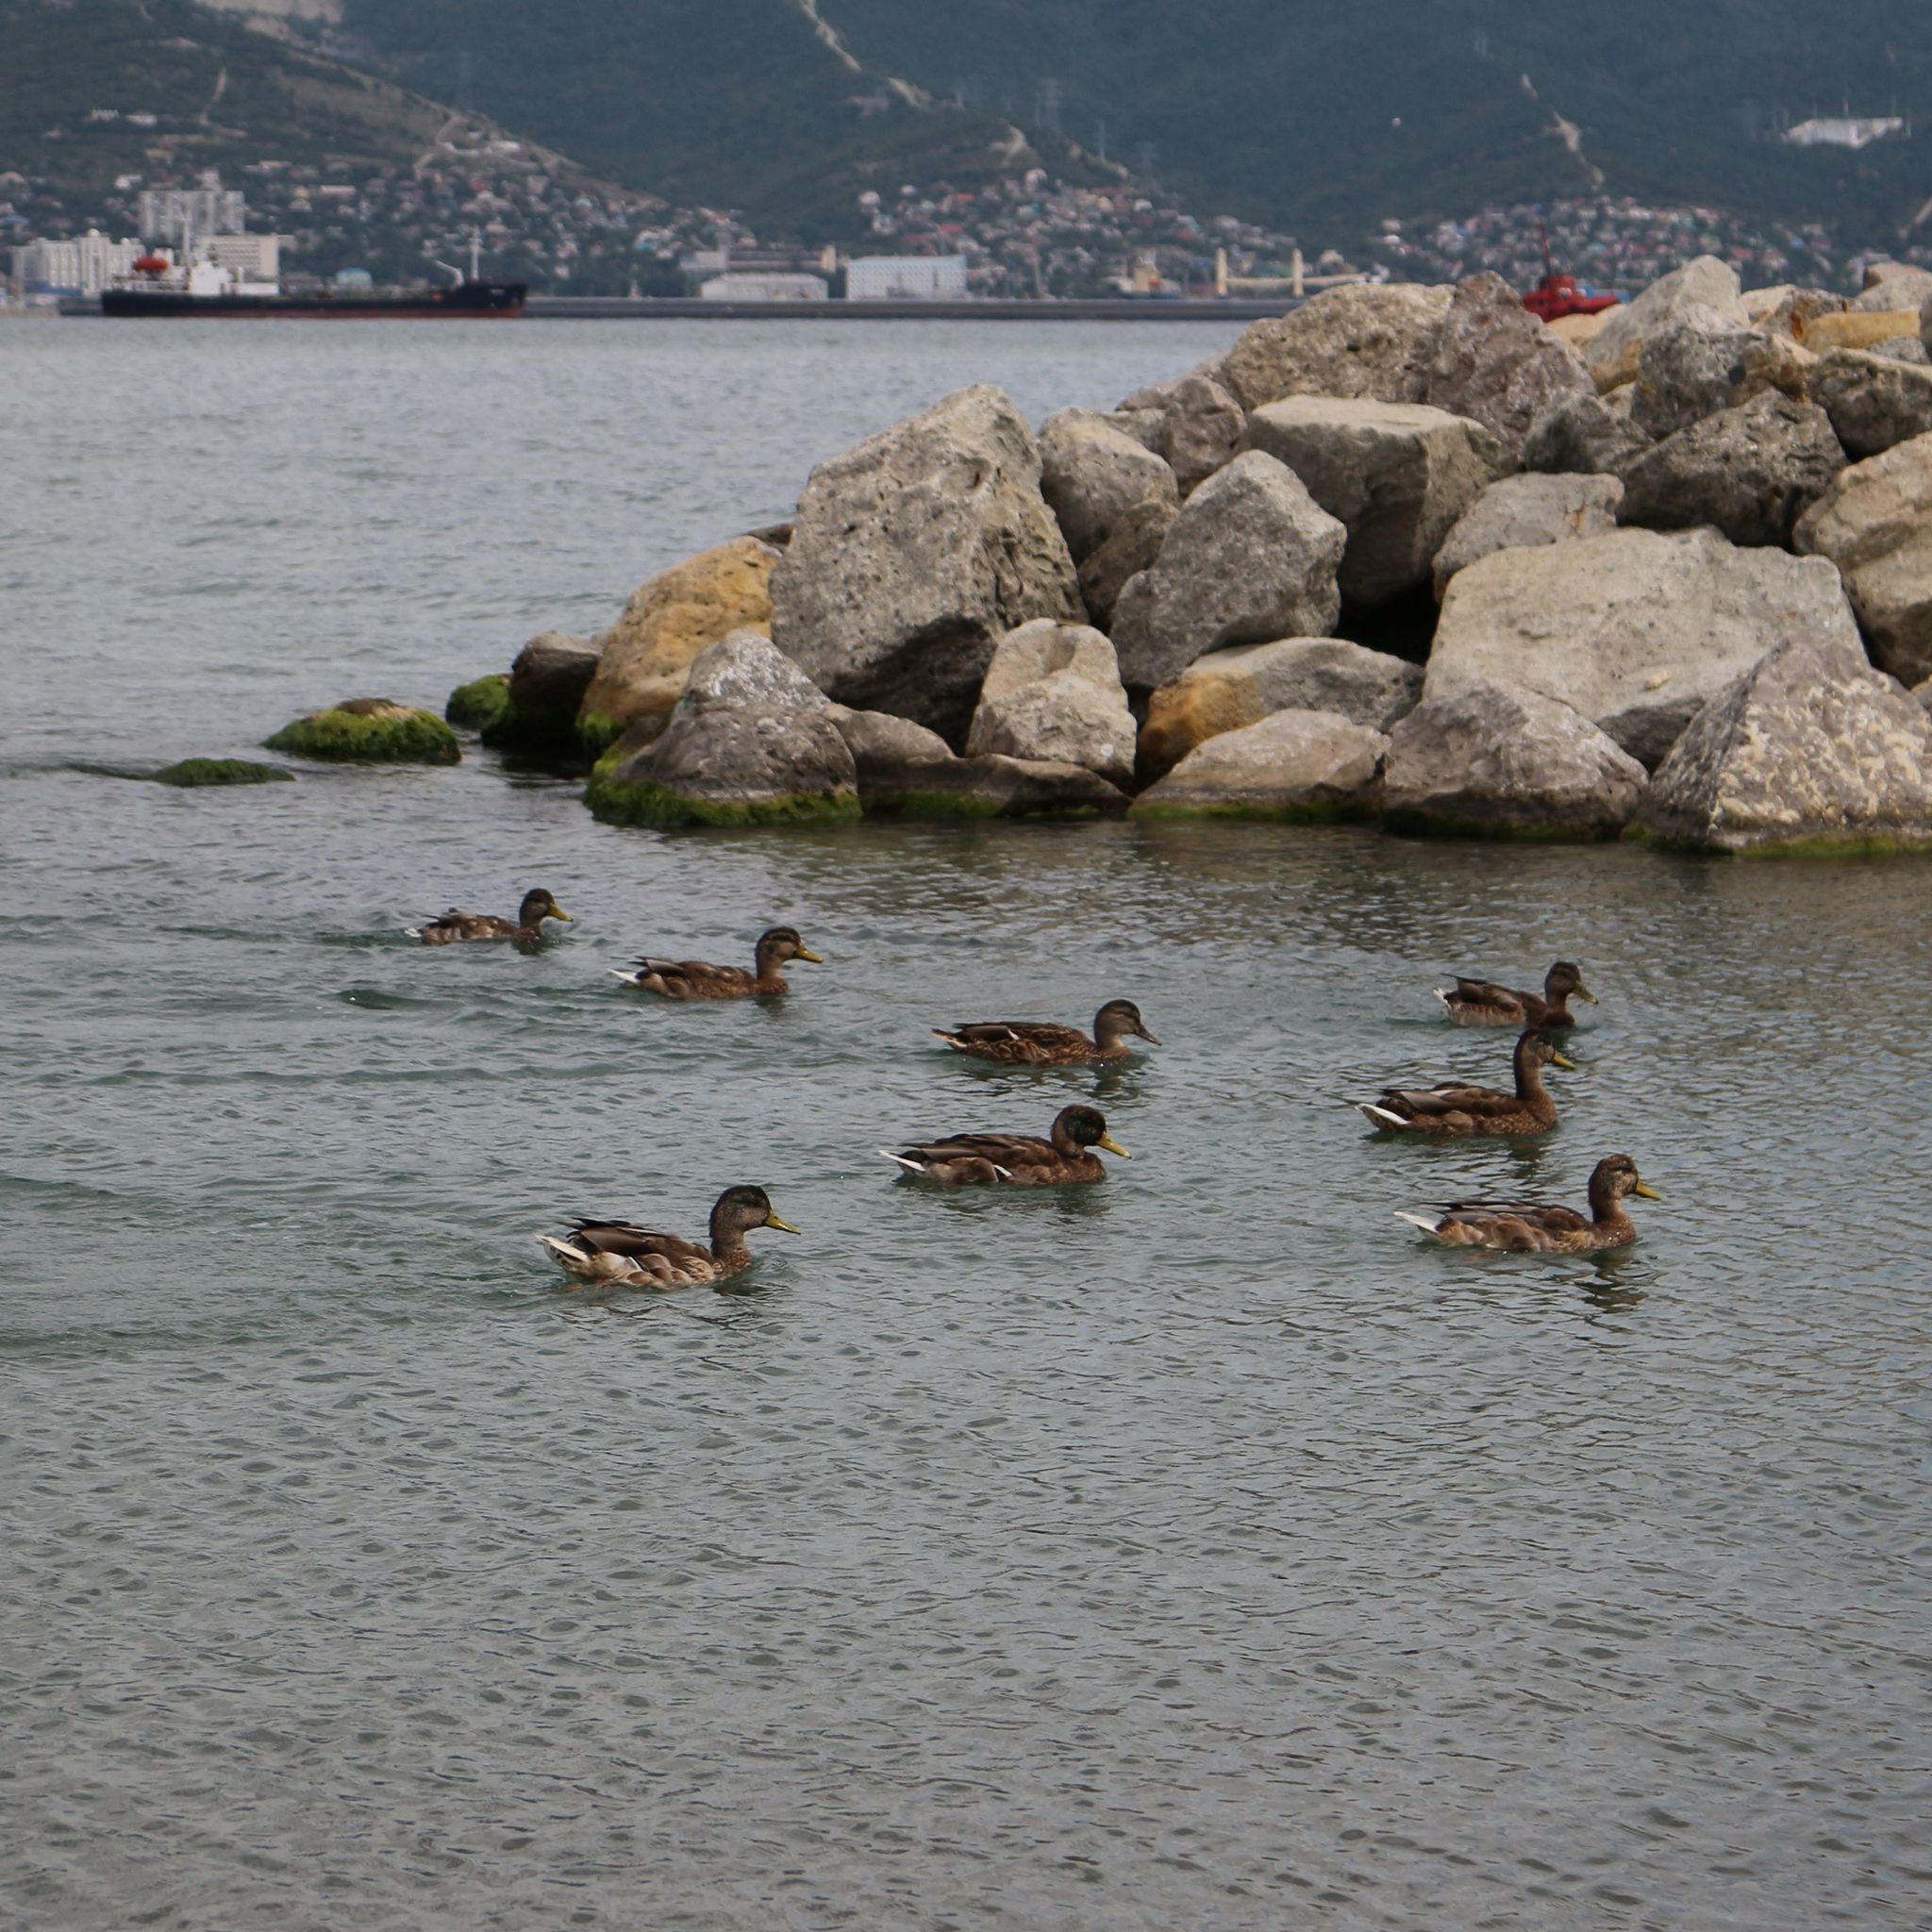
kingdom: Animalia
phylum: Chordata
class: Aves
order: Anseriformes
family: Anatidae
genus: Anas
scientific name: Anas platyrhynchos
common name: Mallard
